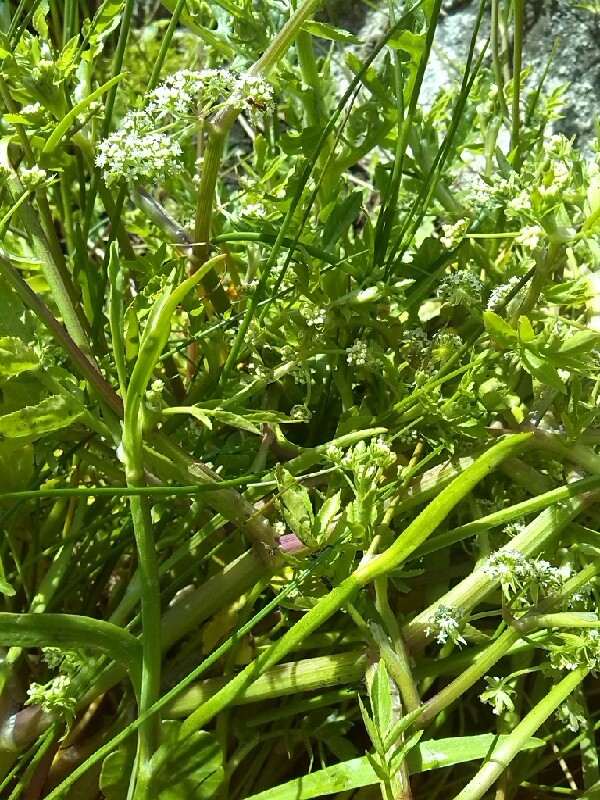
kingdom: Plantae
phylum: Tracheophyta
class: Magnoliopsida
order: Apiales
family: Apiaceae
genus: Helosciadium
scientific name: Helosciadium nodiflorum
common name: Fool's-watercress
